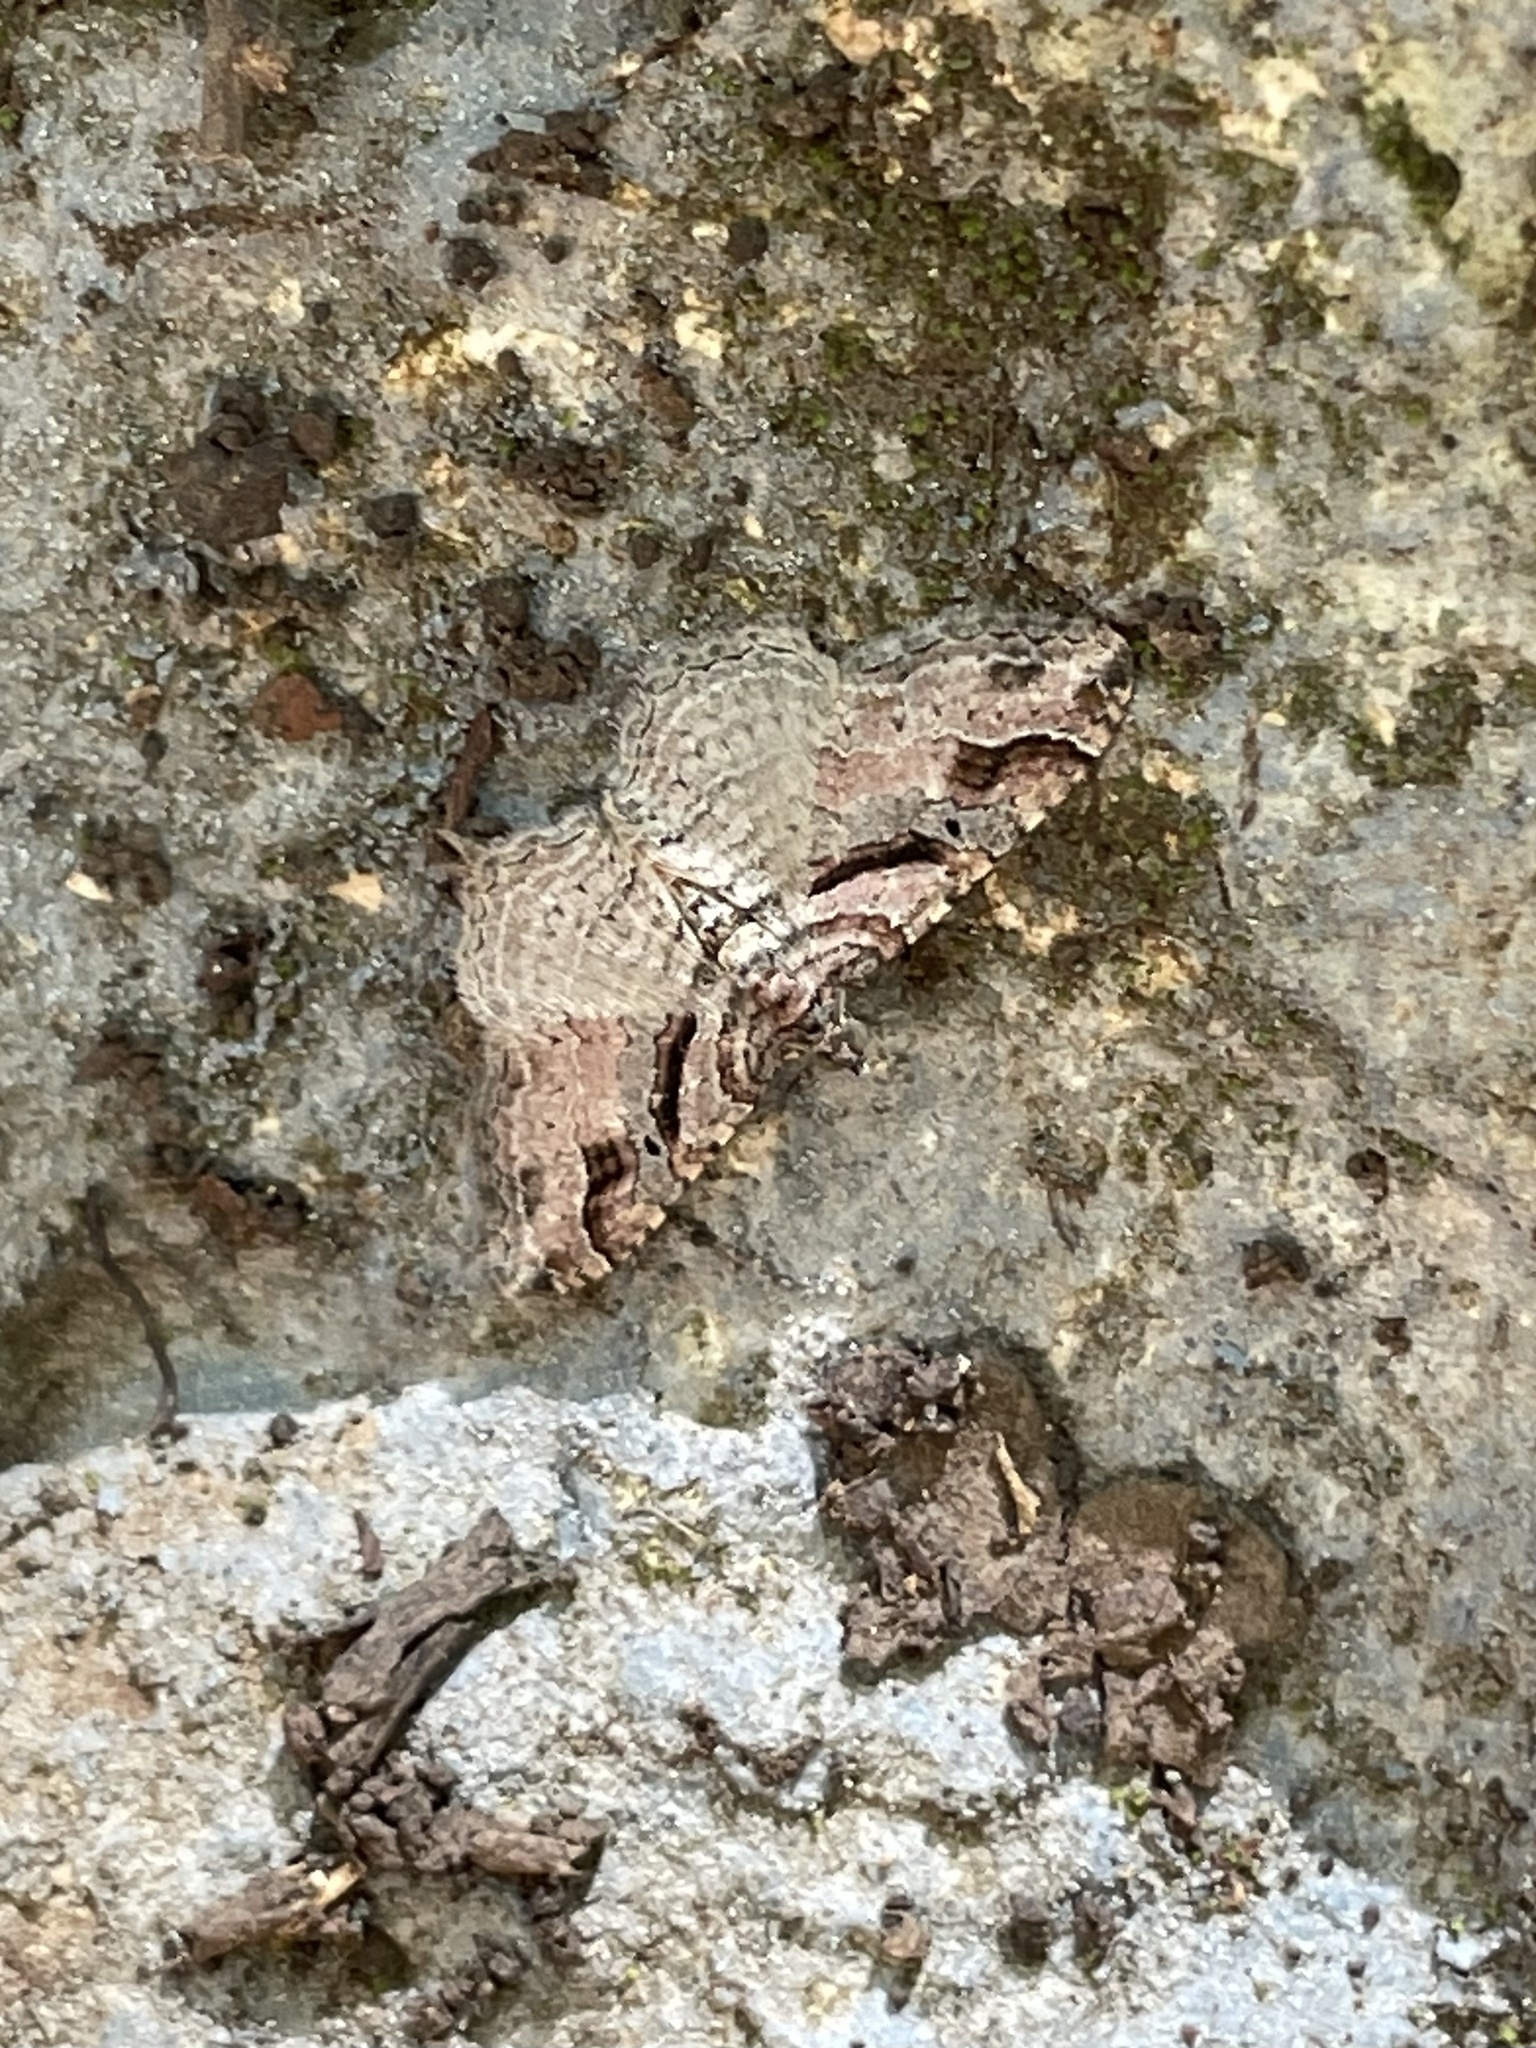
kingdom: Animalia
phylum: Arthropoda
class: Insecta
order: Lepidoptera
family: Geometridae
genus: Costaconvexa
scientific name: Costaconvexa centrostrigaria
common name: Bent-line carpet
